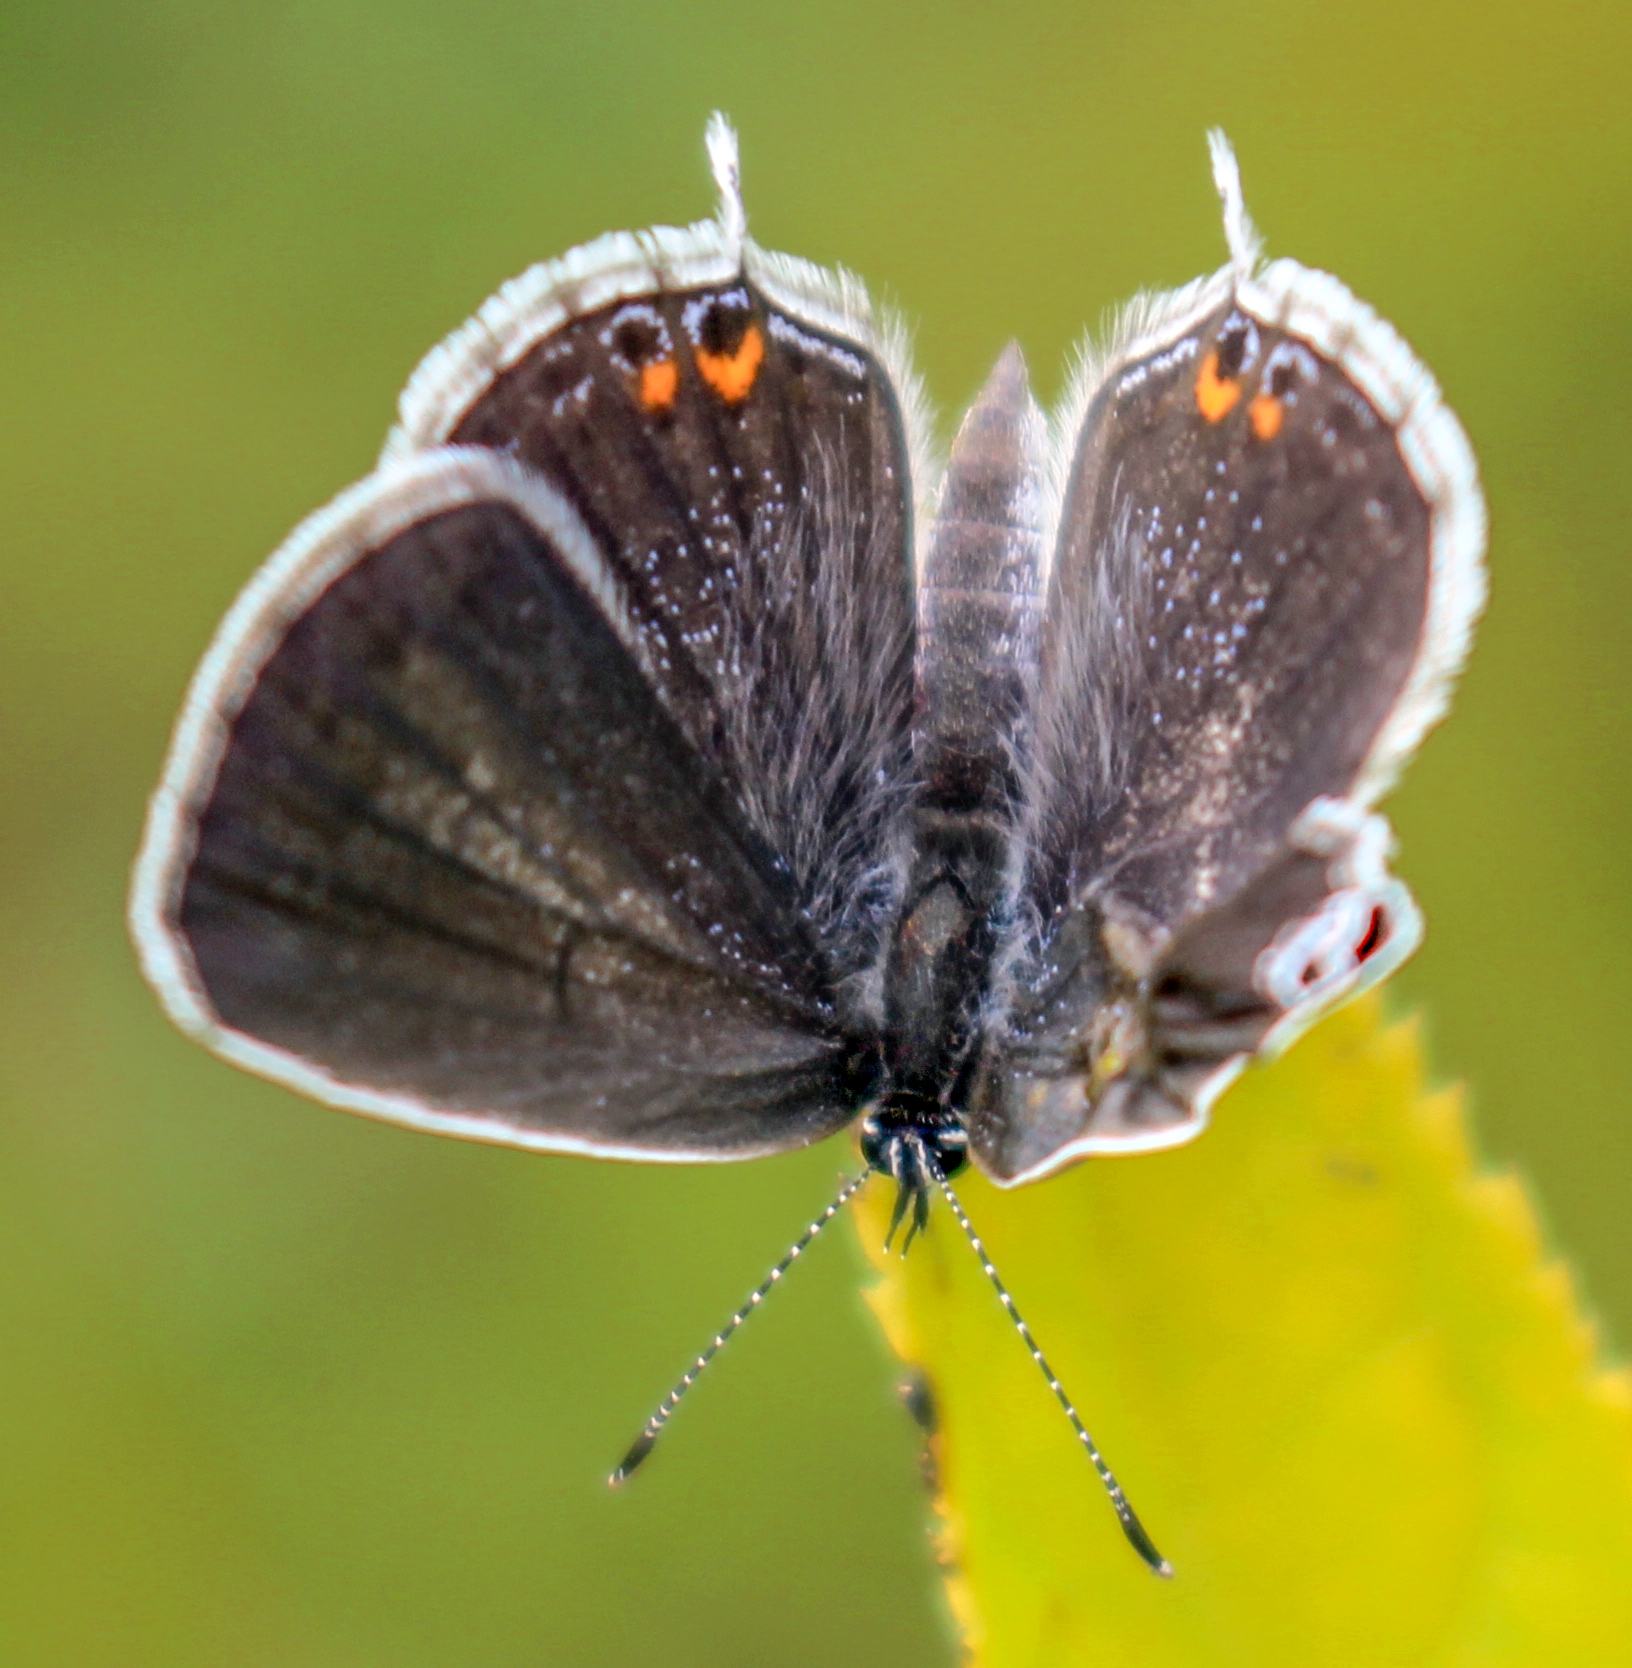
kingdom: Animalia
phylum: Arthropoda
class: Insecta
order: Lepidoptera
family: Lycaenidae
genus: Elkalyce
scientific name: Elkalyce comyntas
